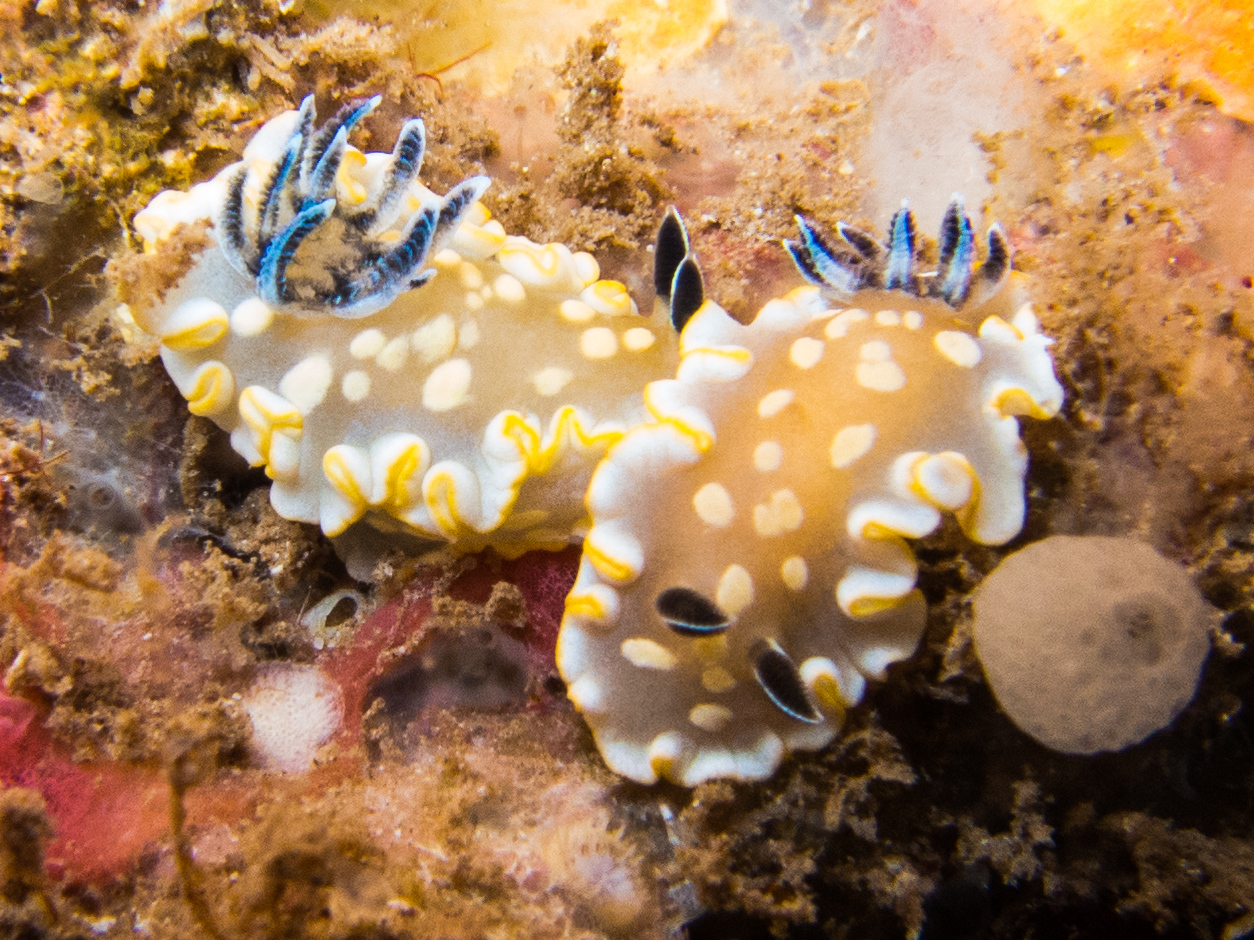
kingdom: Animalia
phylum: Mollusca
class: Gastropoda
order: Nudibranchia
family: Chromodorididae
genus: Ardeadoris
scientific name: Ardeadoris tomsmithi
